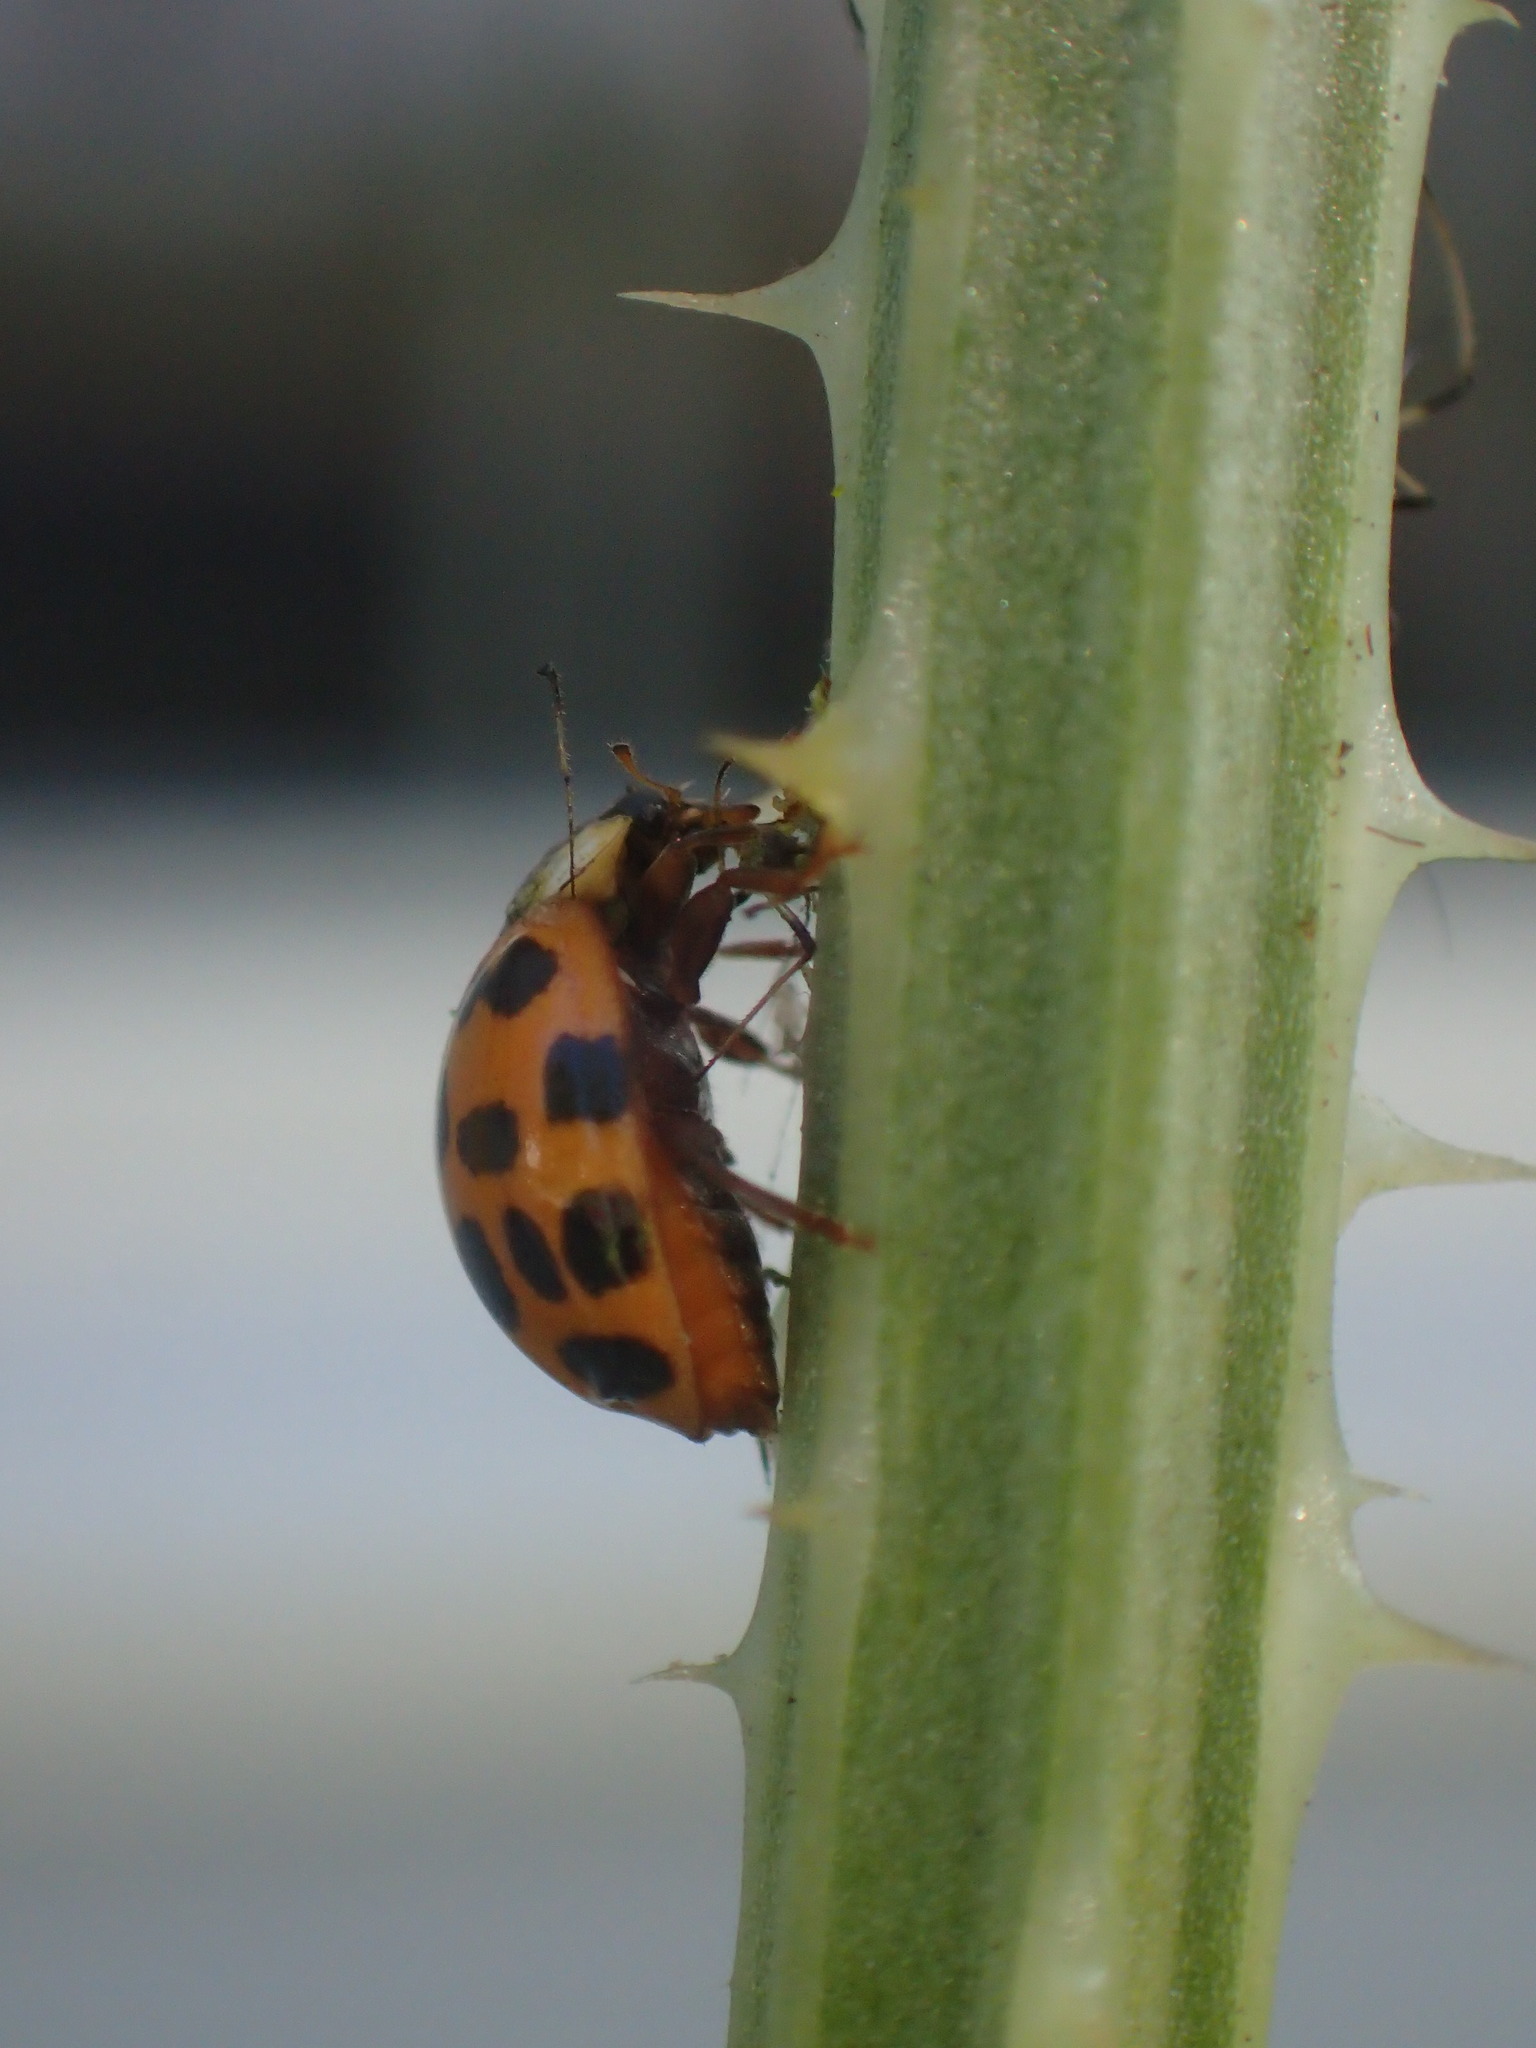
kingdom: Animalia
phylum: Arthropoda
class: Insecta
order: Coleoptera
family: Coccinellidae
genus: Harmonia
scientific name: Harmonia axyridis
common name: Harlequin ladybird
